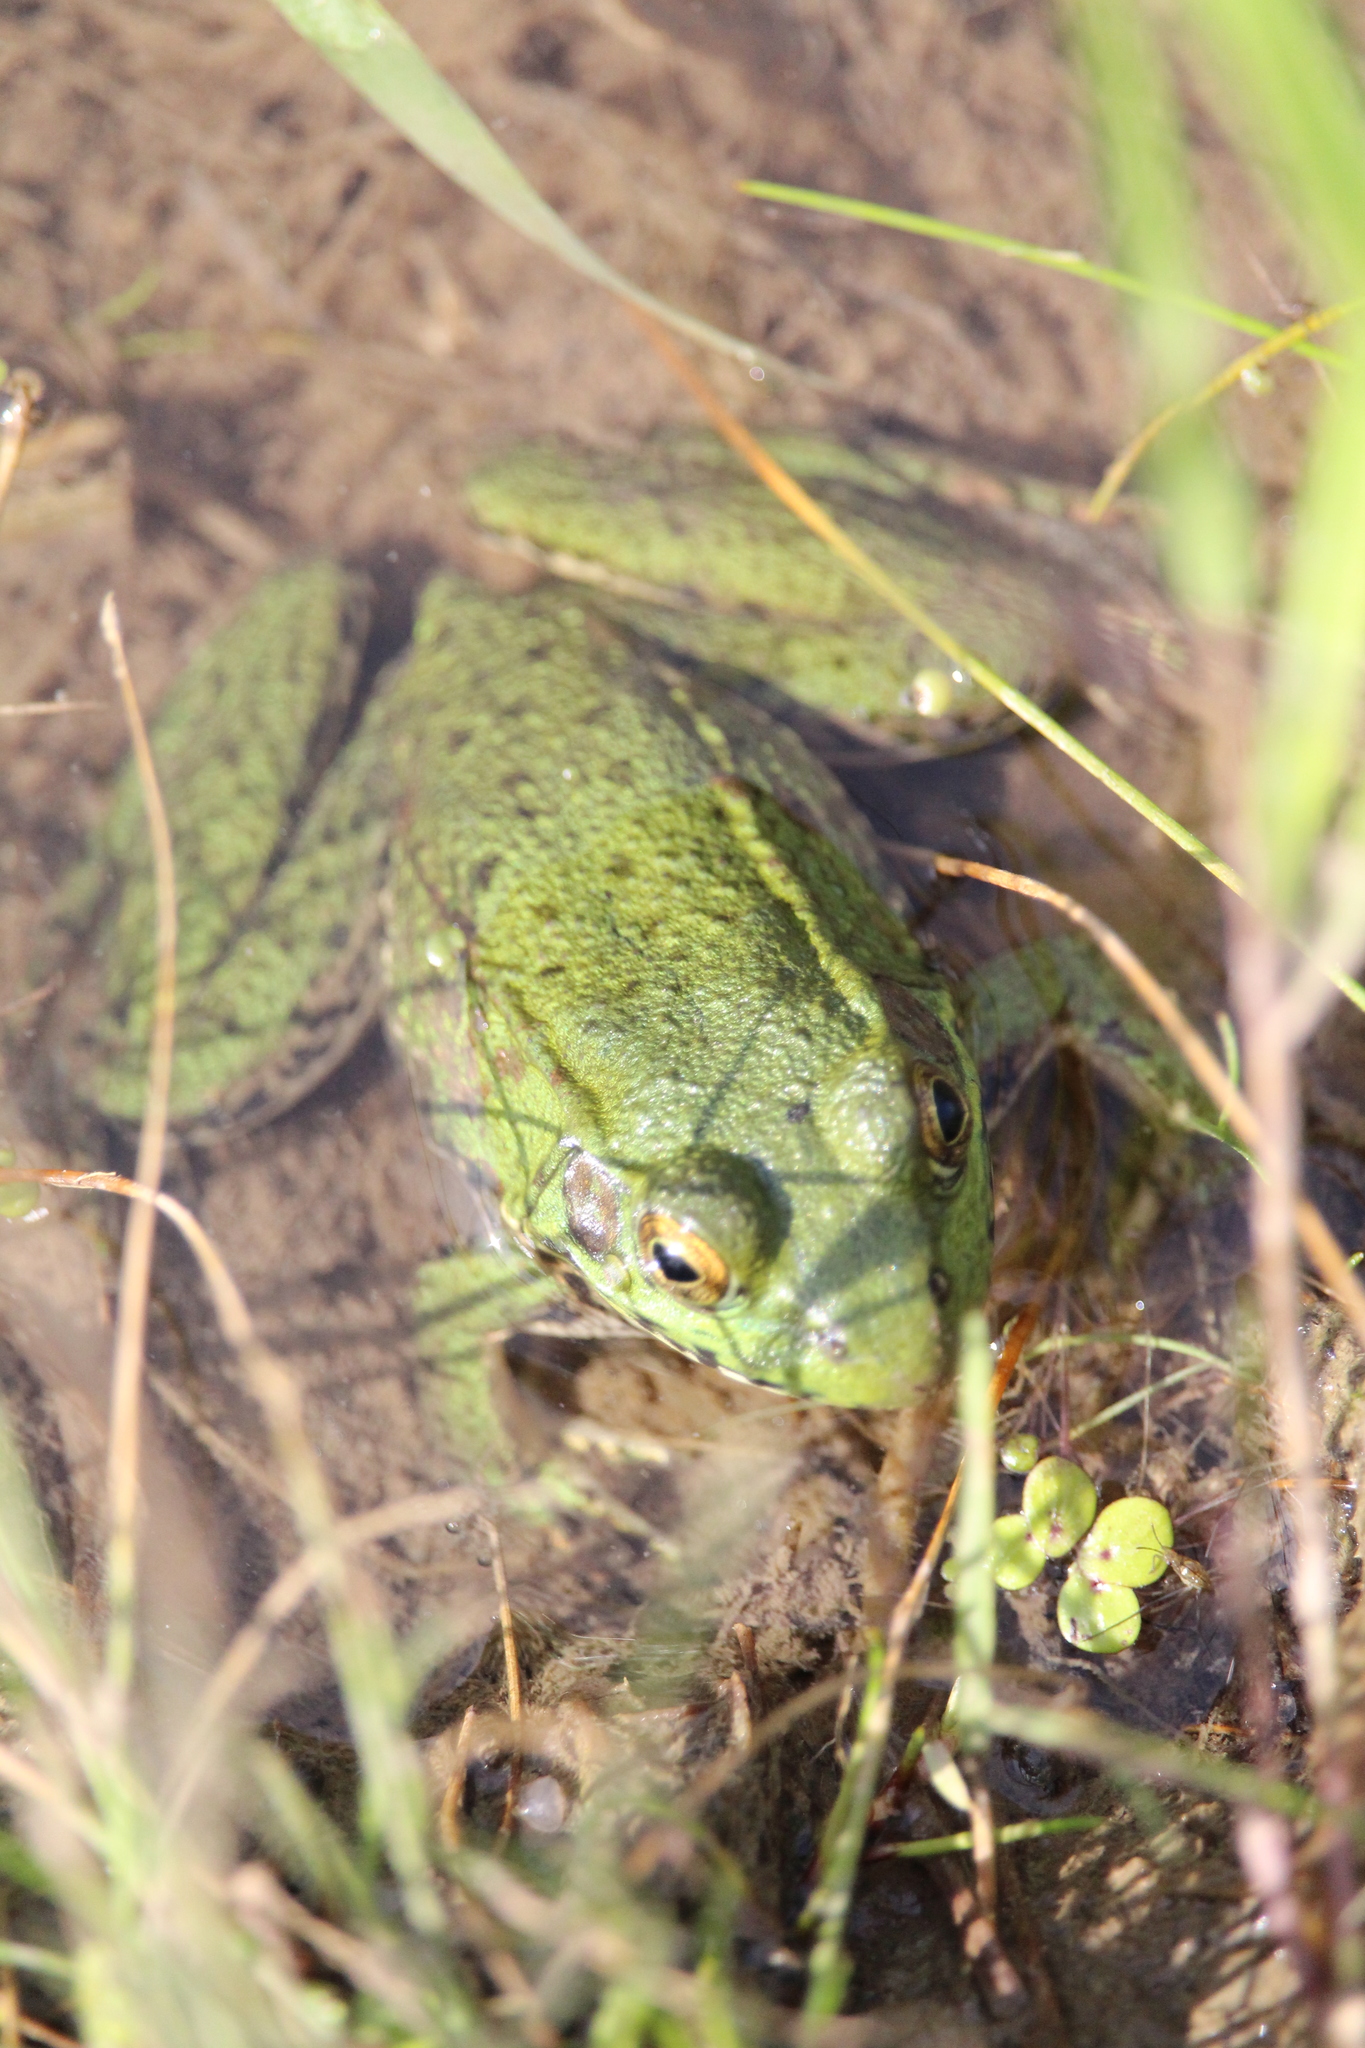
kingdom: Animalia
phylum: Chordata
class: Amphibia
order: Anura
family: Ranidae
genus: Lithobates
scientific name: Lithobates clamitans
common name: Green frog
